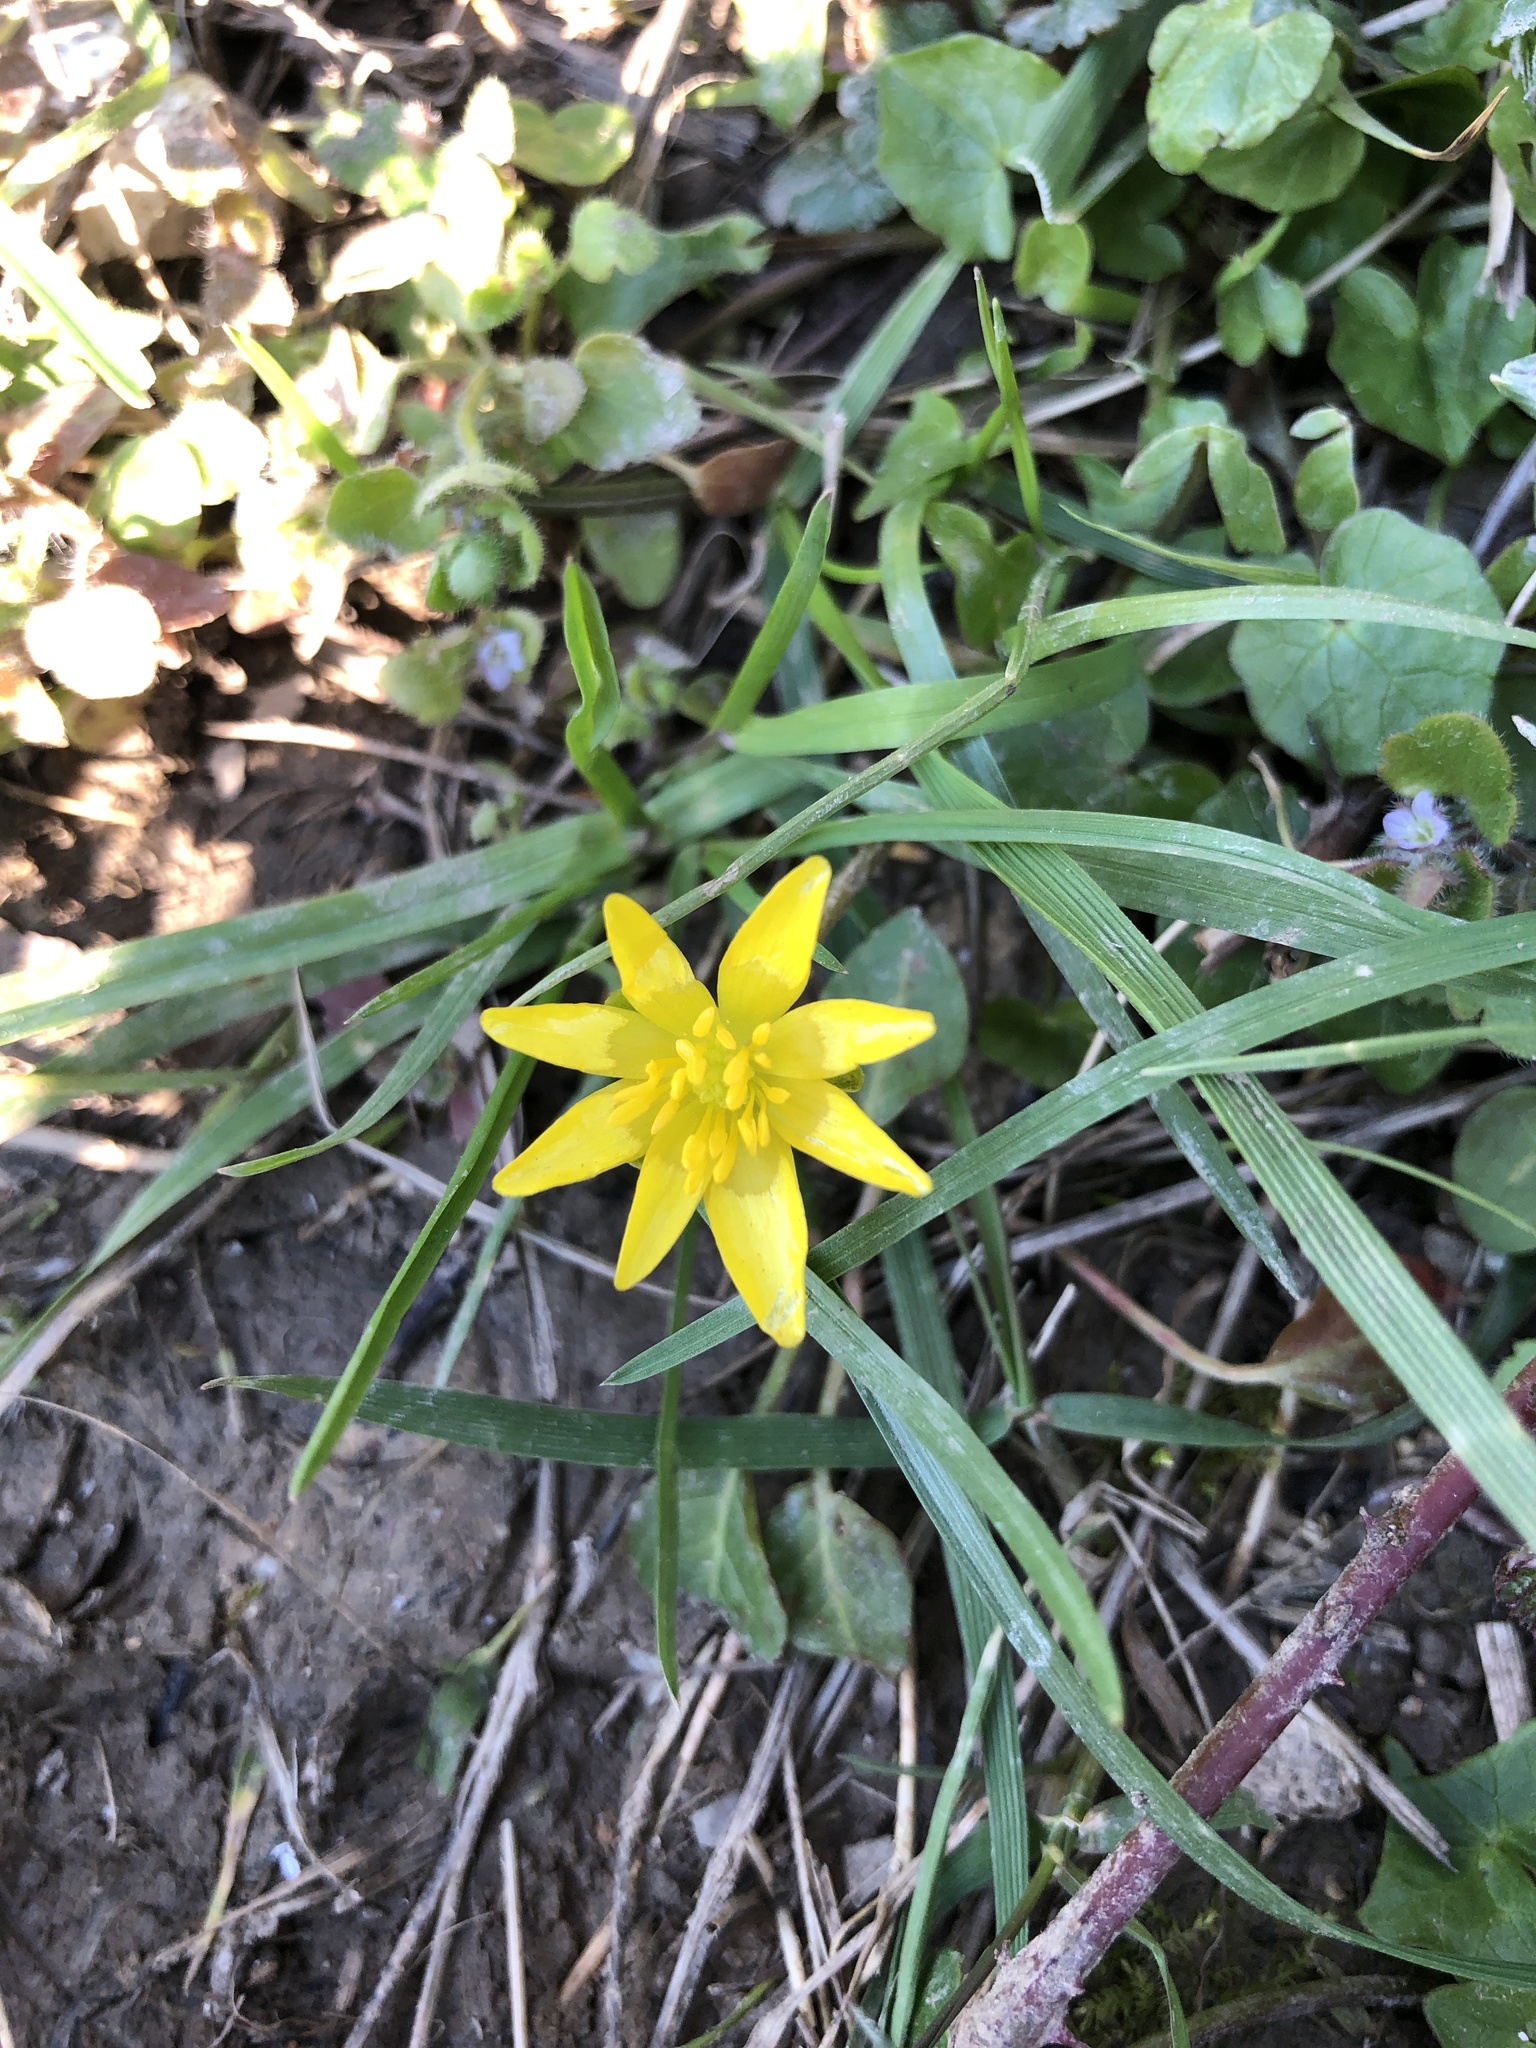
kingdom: Plantae
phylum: Tracheophyta
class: Magnoliopsida
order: Ranunculales
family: Ranunculaceae
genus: Ficaria
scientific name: Ficaria verna
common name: Lesser celandine
